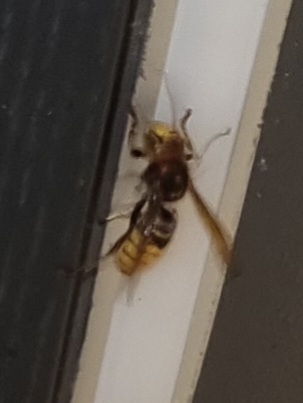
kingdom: Animalia
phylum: Arthropoda
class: Insecta
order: Hymenoptera
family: Vespidae
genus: Vespa
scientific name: Vespa crabro
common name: Hornet
